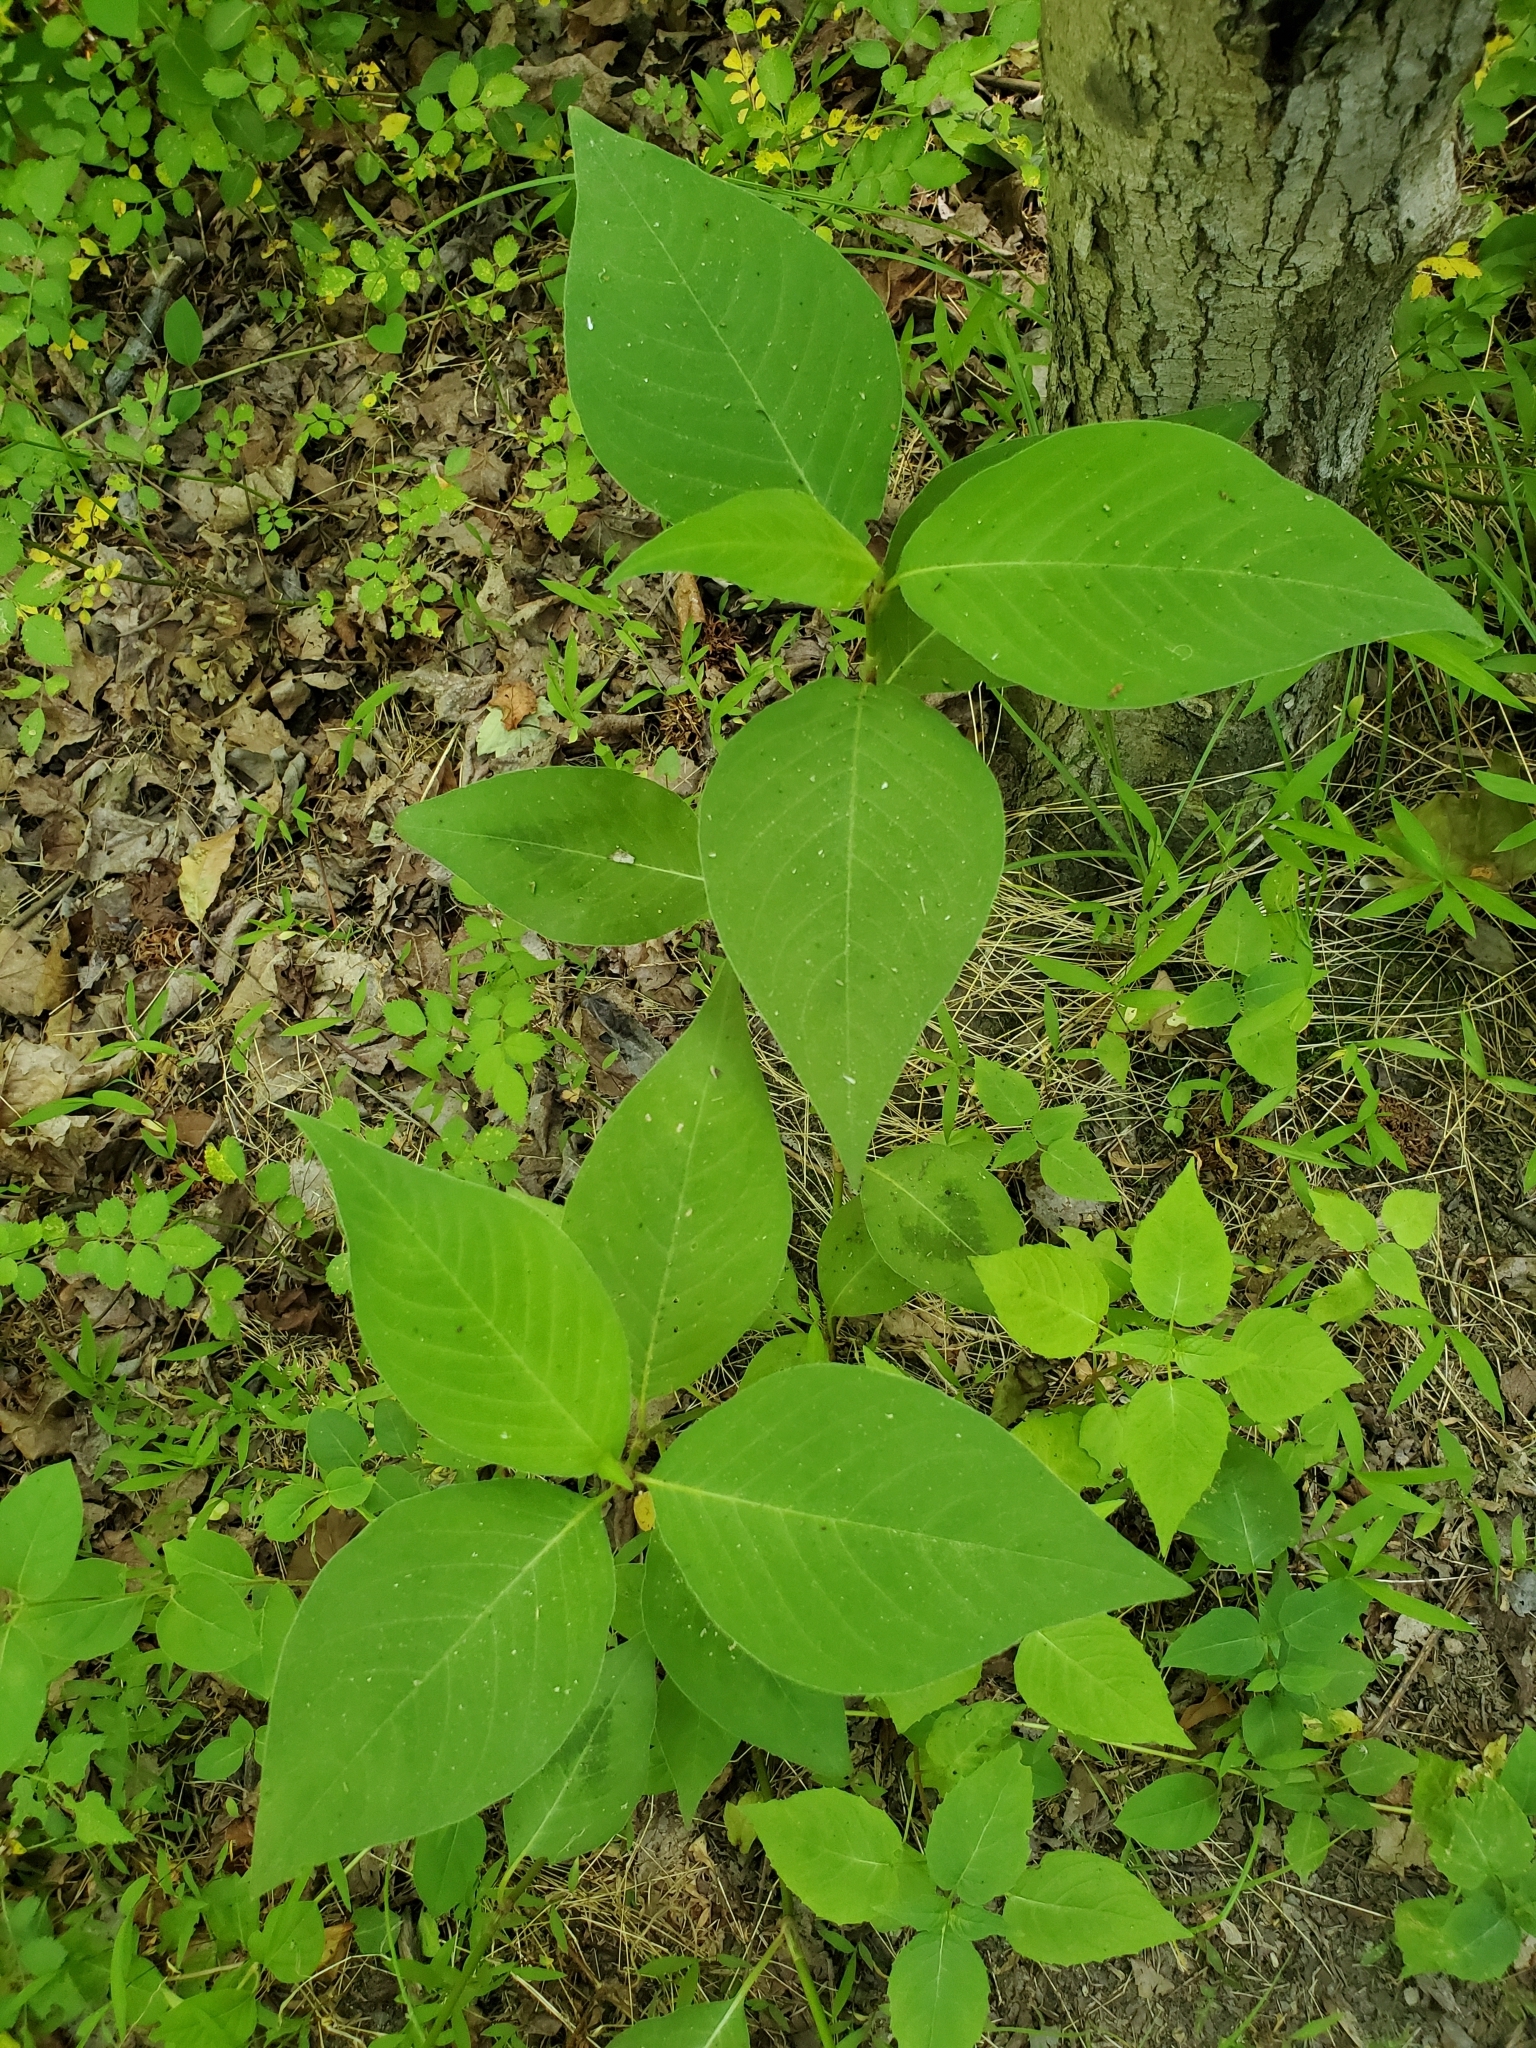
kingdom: Plantae
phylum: Tracheophyta
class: Magnoliopsida
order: Caryophyllales
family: Polygonaceae
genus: Persicaria
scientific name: Persicaria virginiana
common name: Jumpseed
